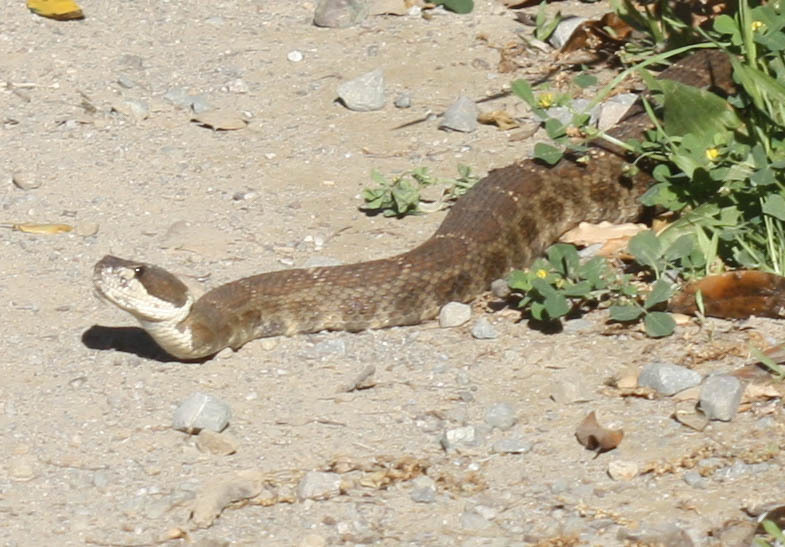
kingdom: Animalia
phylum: Chordata
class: Squamata
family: Viperidae
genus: Crotalus
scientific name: Crotalus oreganus
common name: Abyssus
